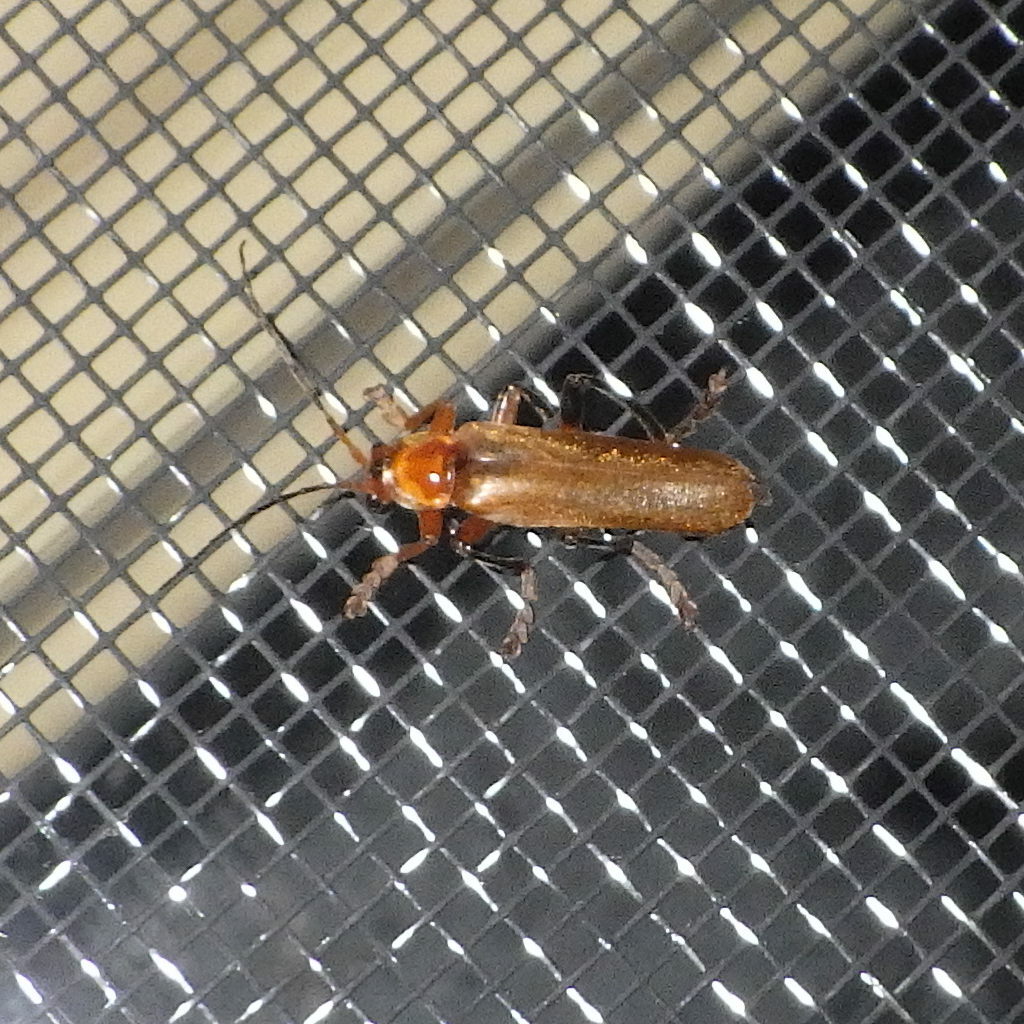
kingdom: Animalia
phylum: Arthropoda
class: Insecta
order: Coleoptera
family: Cantharidae
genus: Cantharis
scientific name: Cantharis livida
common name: Livid soldier beetle
